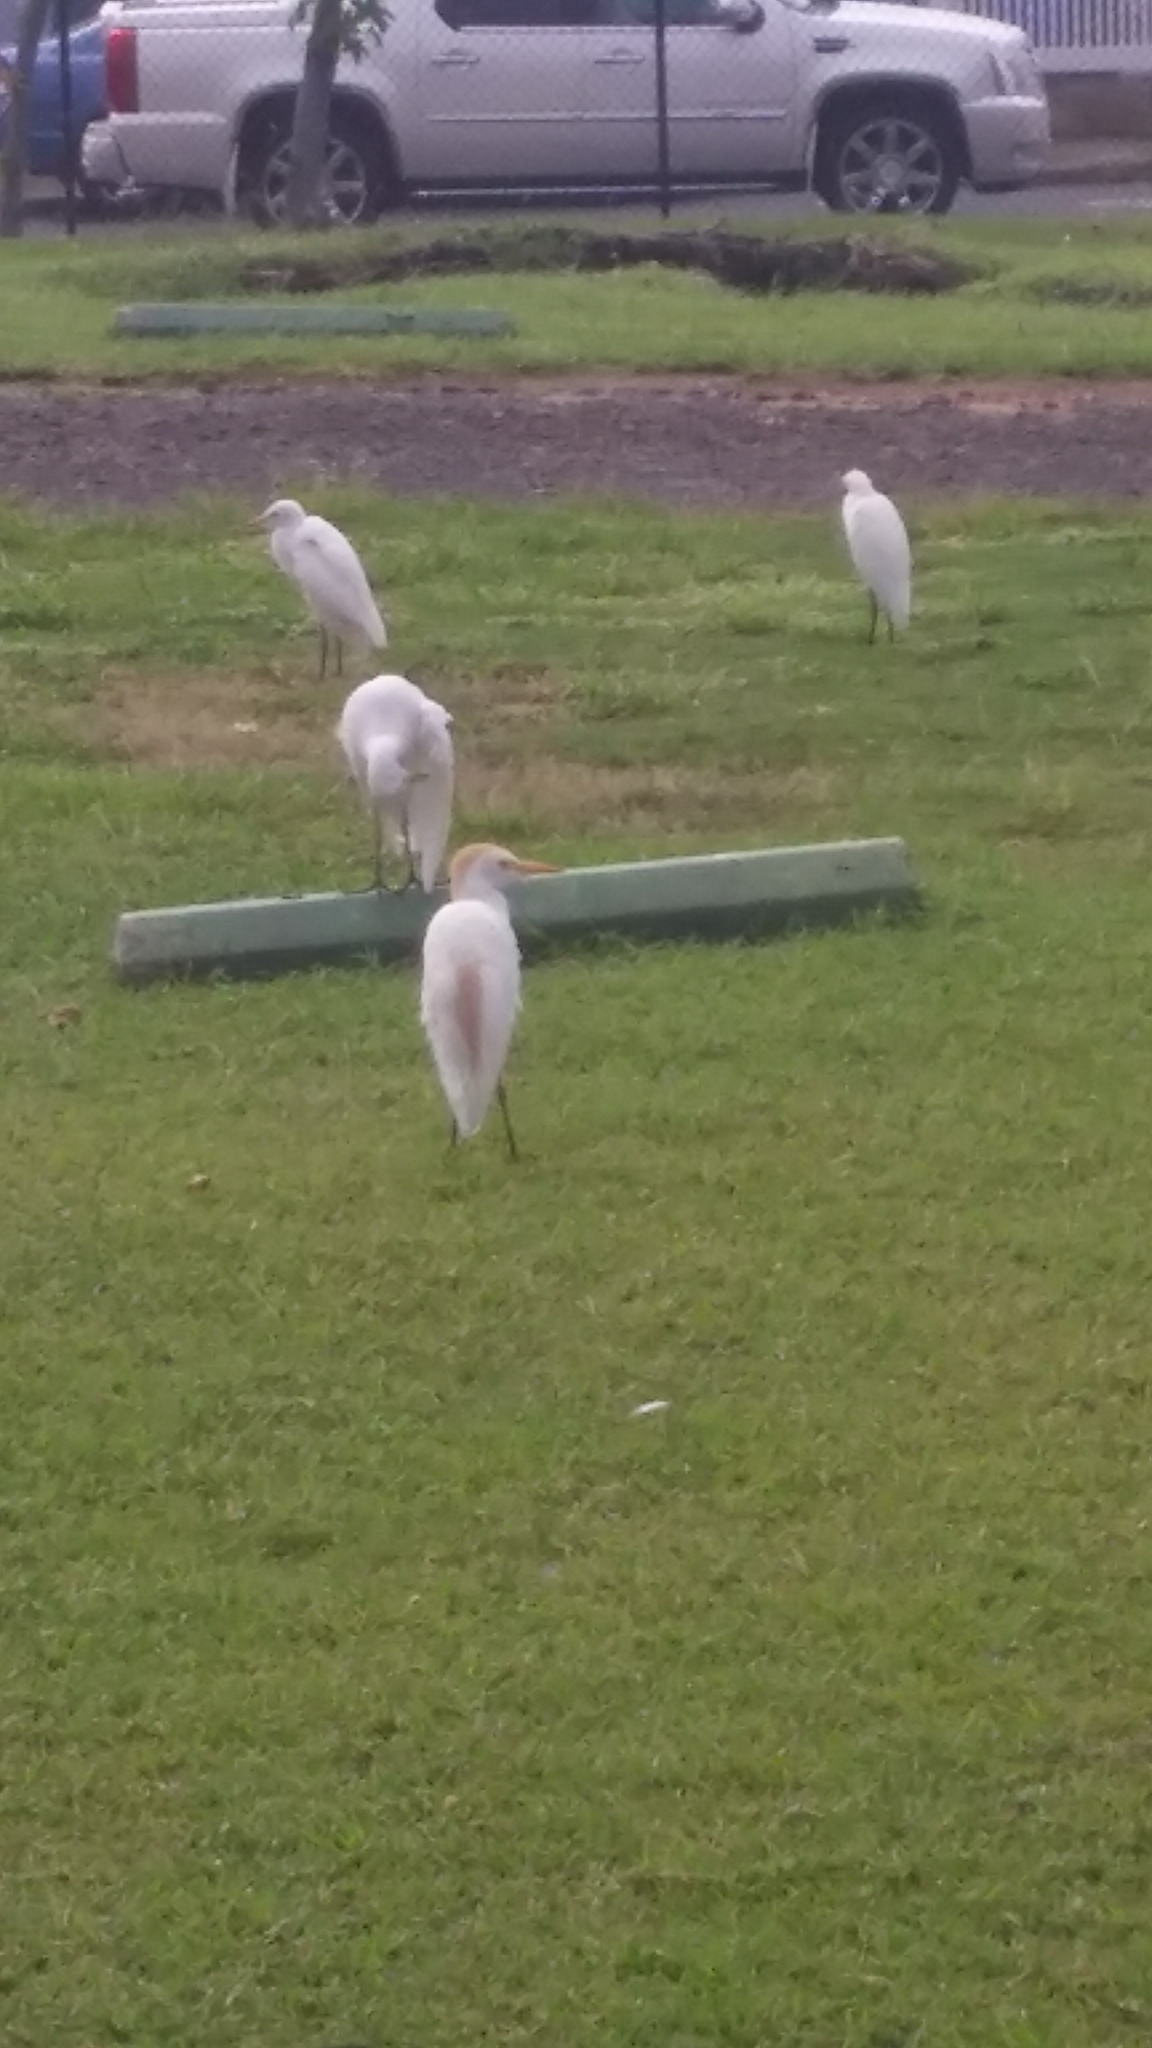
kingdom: Animalia
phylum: Chordata
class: Aves
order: Pelecaniformes
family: Ardeidae
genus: Bubulcus
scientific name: Bubulcus ibis
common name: Cattle egret
